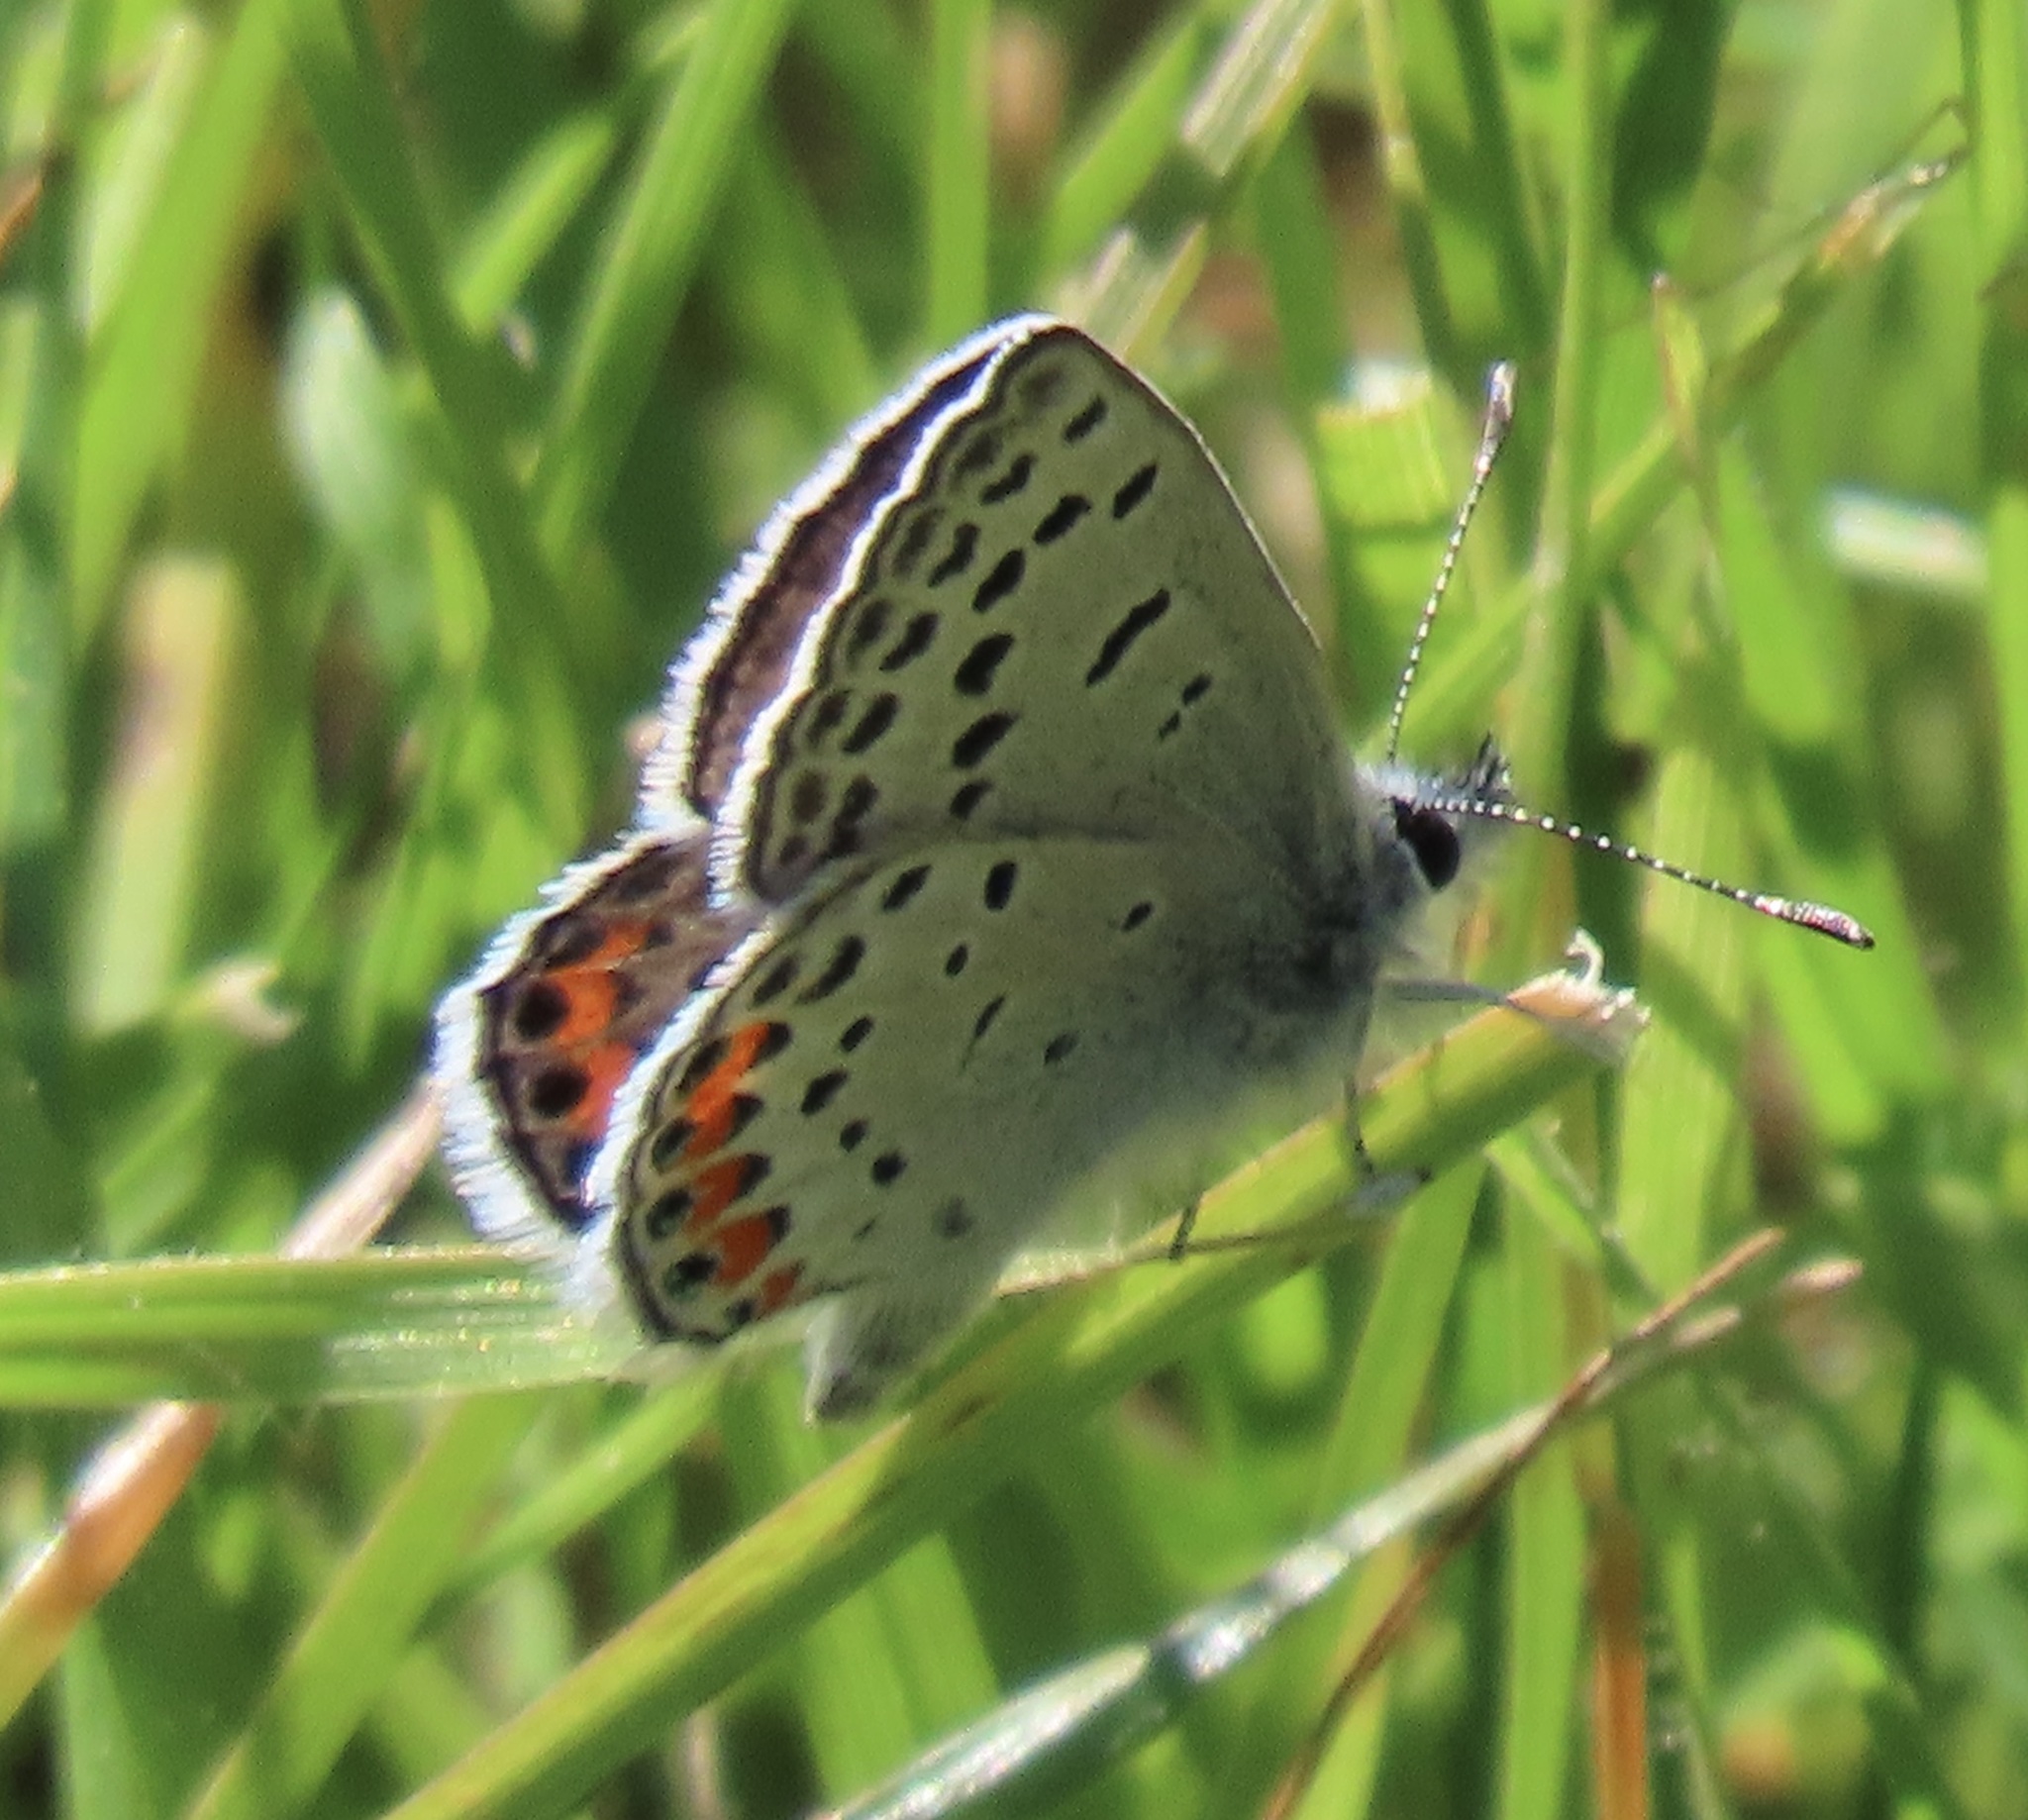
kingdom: Animalia
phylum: Arthropoda
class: Insecta
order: Lepidoptera
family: Lycaenidae
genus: Icaricia
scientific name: Icaricia acmon
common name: Acmon blue
